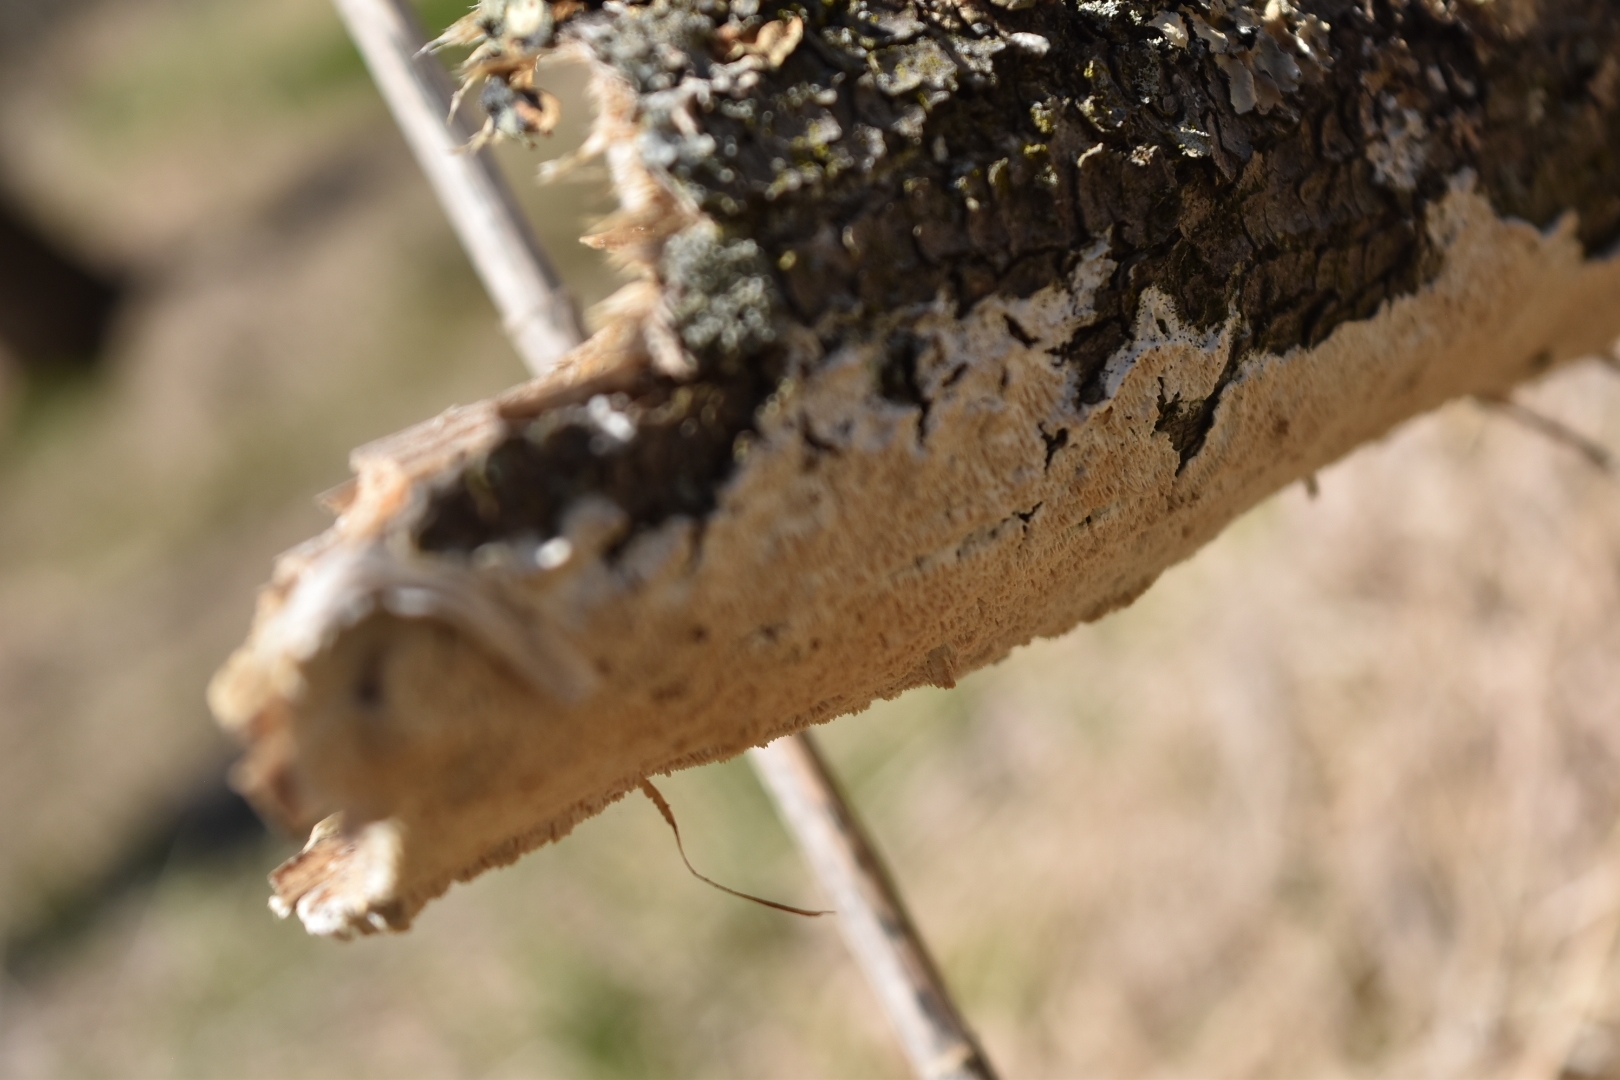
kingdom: Fungi
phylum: Basidiomycota
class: Agaricomycetes
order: Polyporales
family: Irpicaceae
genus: Irpex
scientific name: Irpex lacteus
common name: Milk-white toothed polypore
